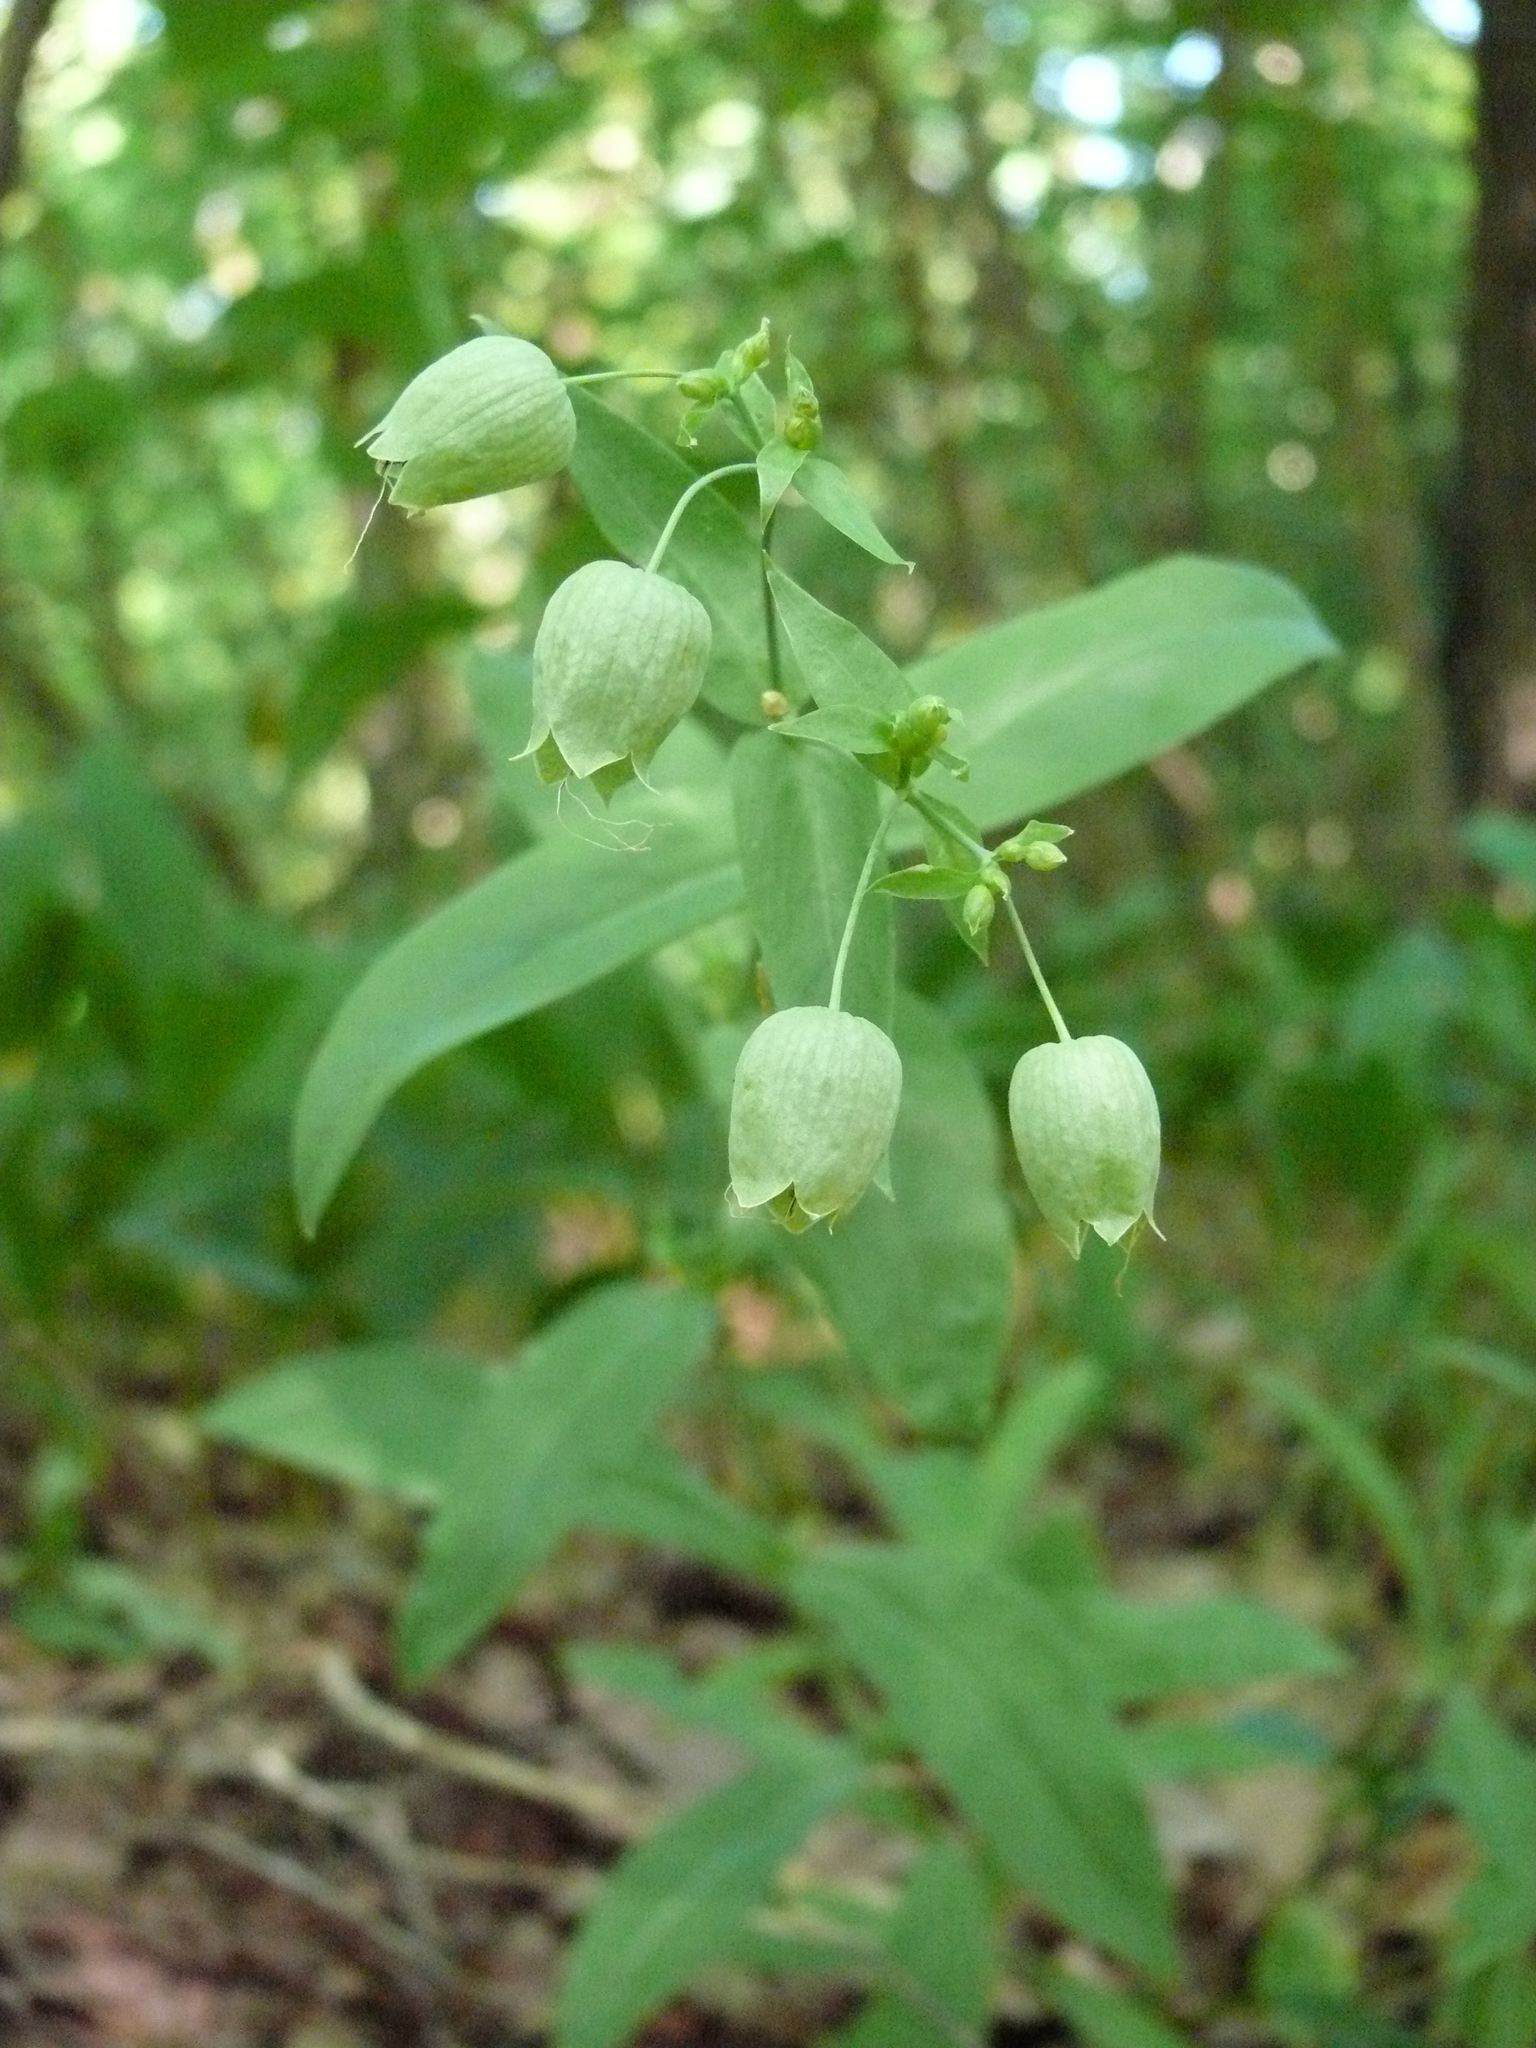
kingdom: Plantae
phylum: Tracheophyta
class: Magnoliopsida
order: Caryophyllales
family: Caryophyllaceae
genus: Silene
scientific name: Silene baccifera
